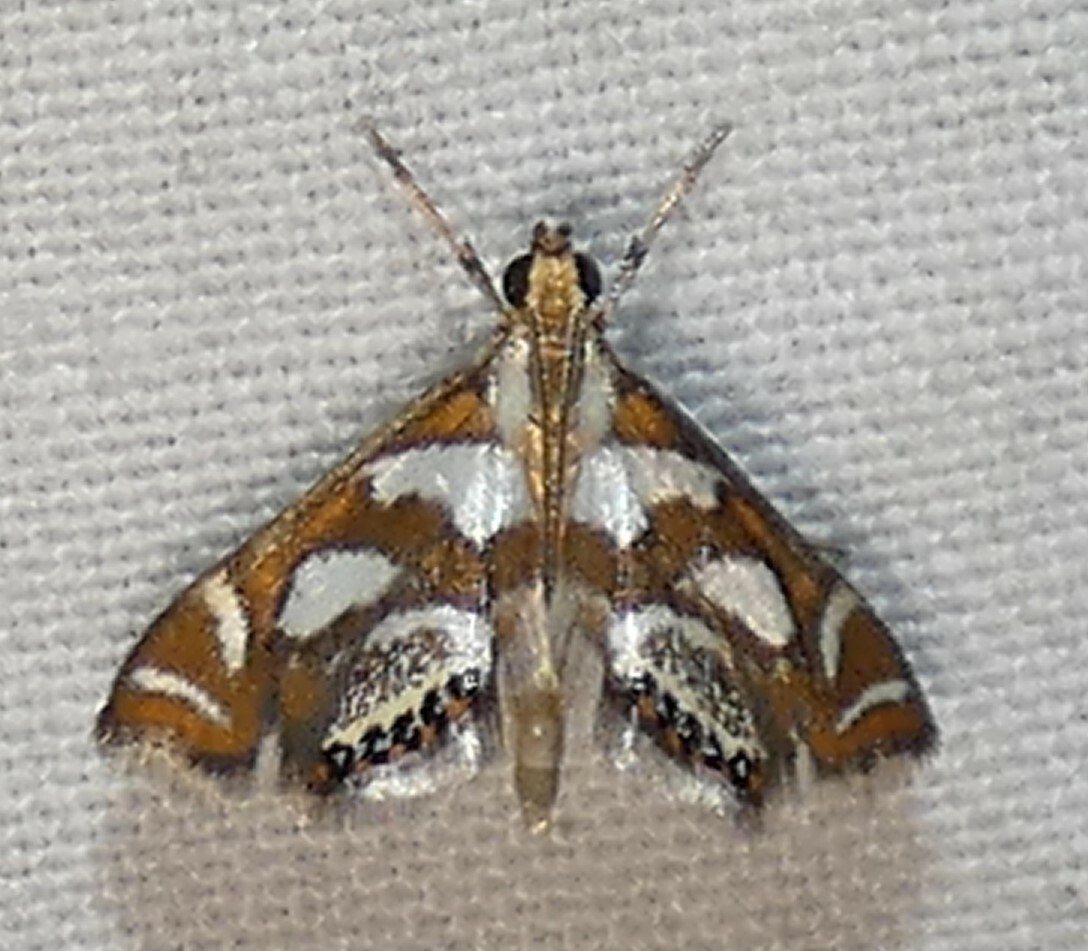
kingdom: Animalia
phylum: Arthropoda
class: Insecta
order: Lepidoptera
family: Crambidae
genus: Chrysendeton
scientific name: Chrysendeton medicinalis
